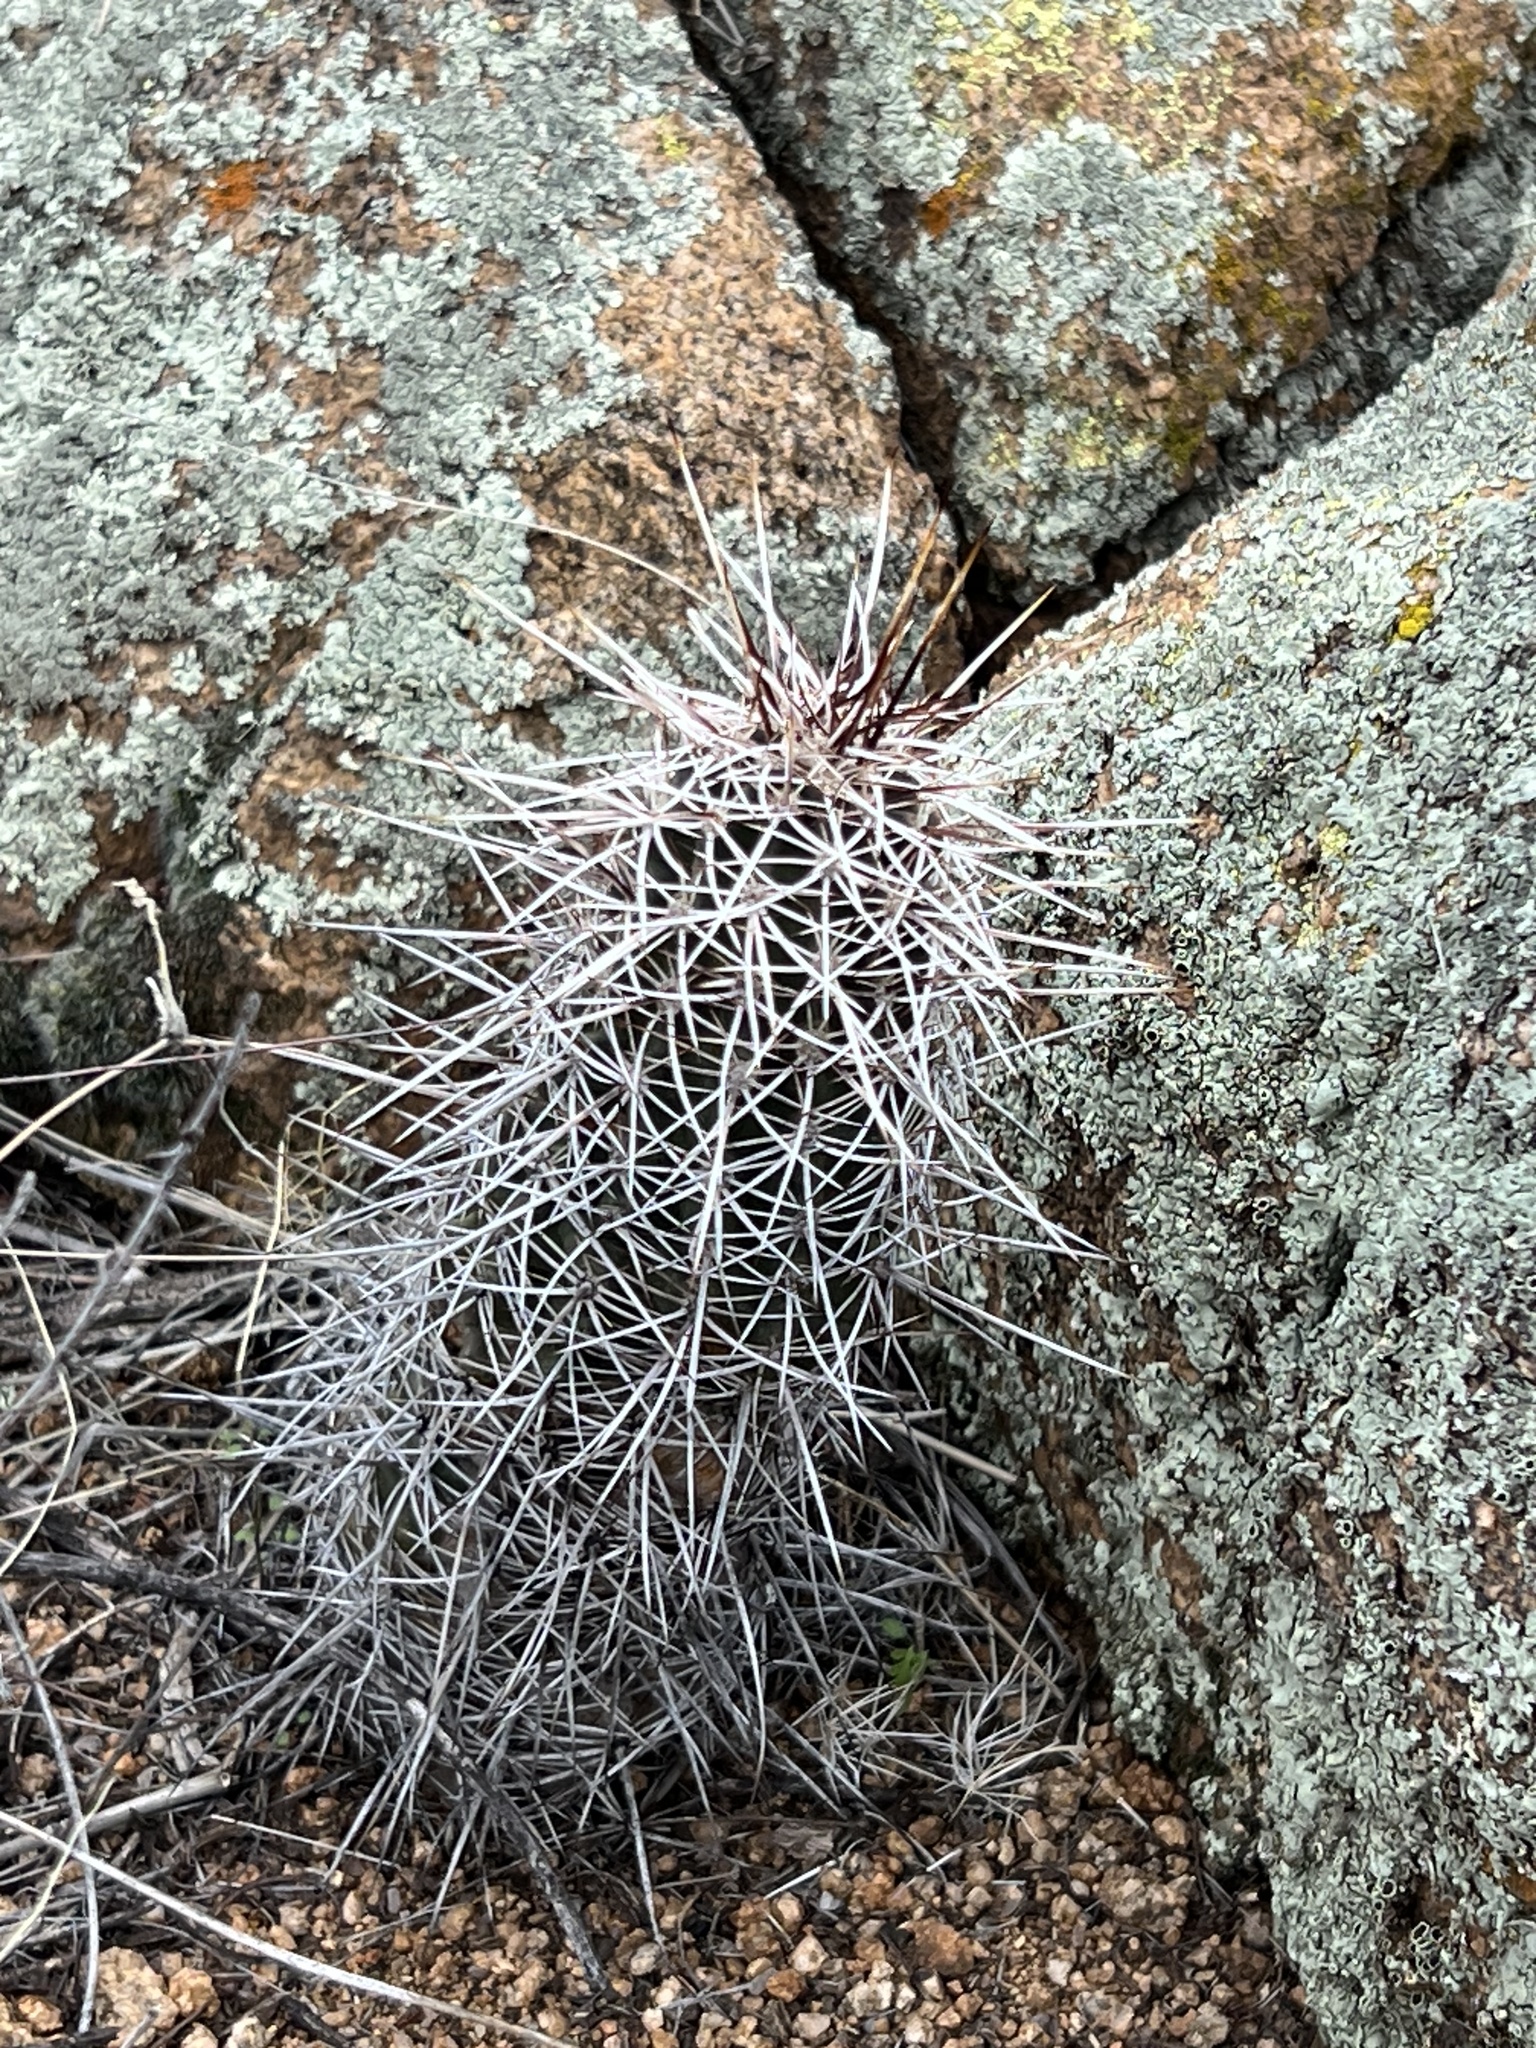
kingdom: Plantae
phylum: Tracheophyta
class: Magnoliopsida
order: Caryophyllales
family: Cactaceae
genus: Echinocereus
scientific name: Echinocereus fasciculatus
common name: Bundle hedgehog
